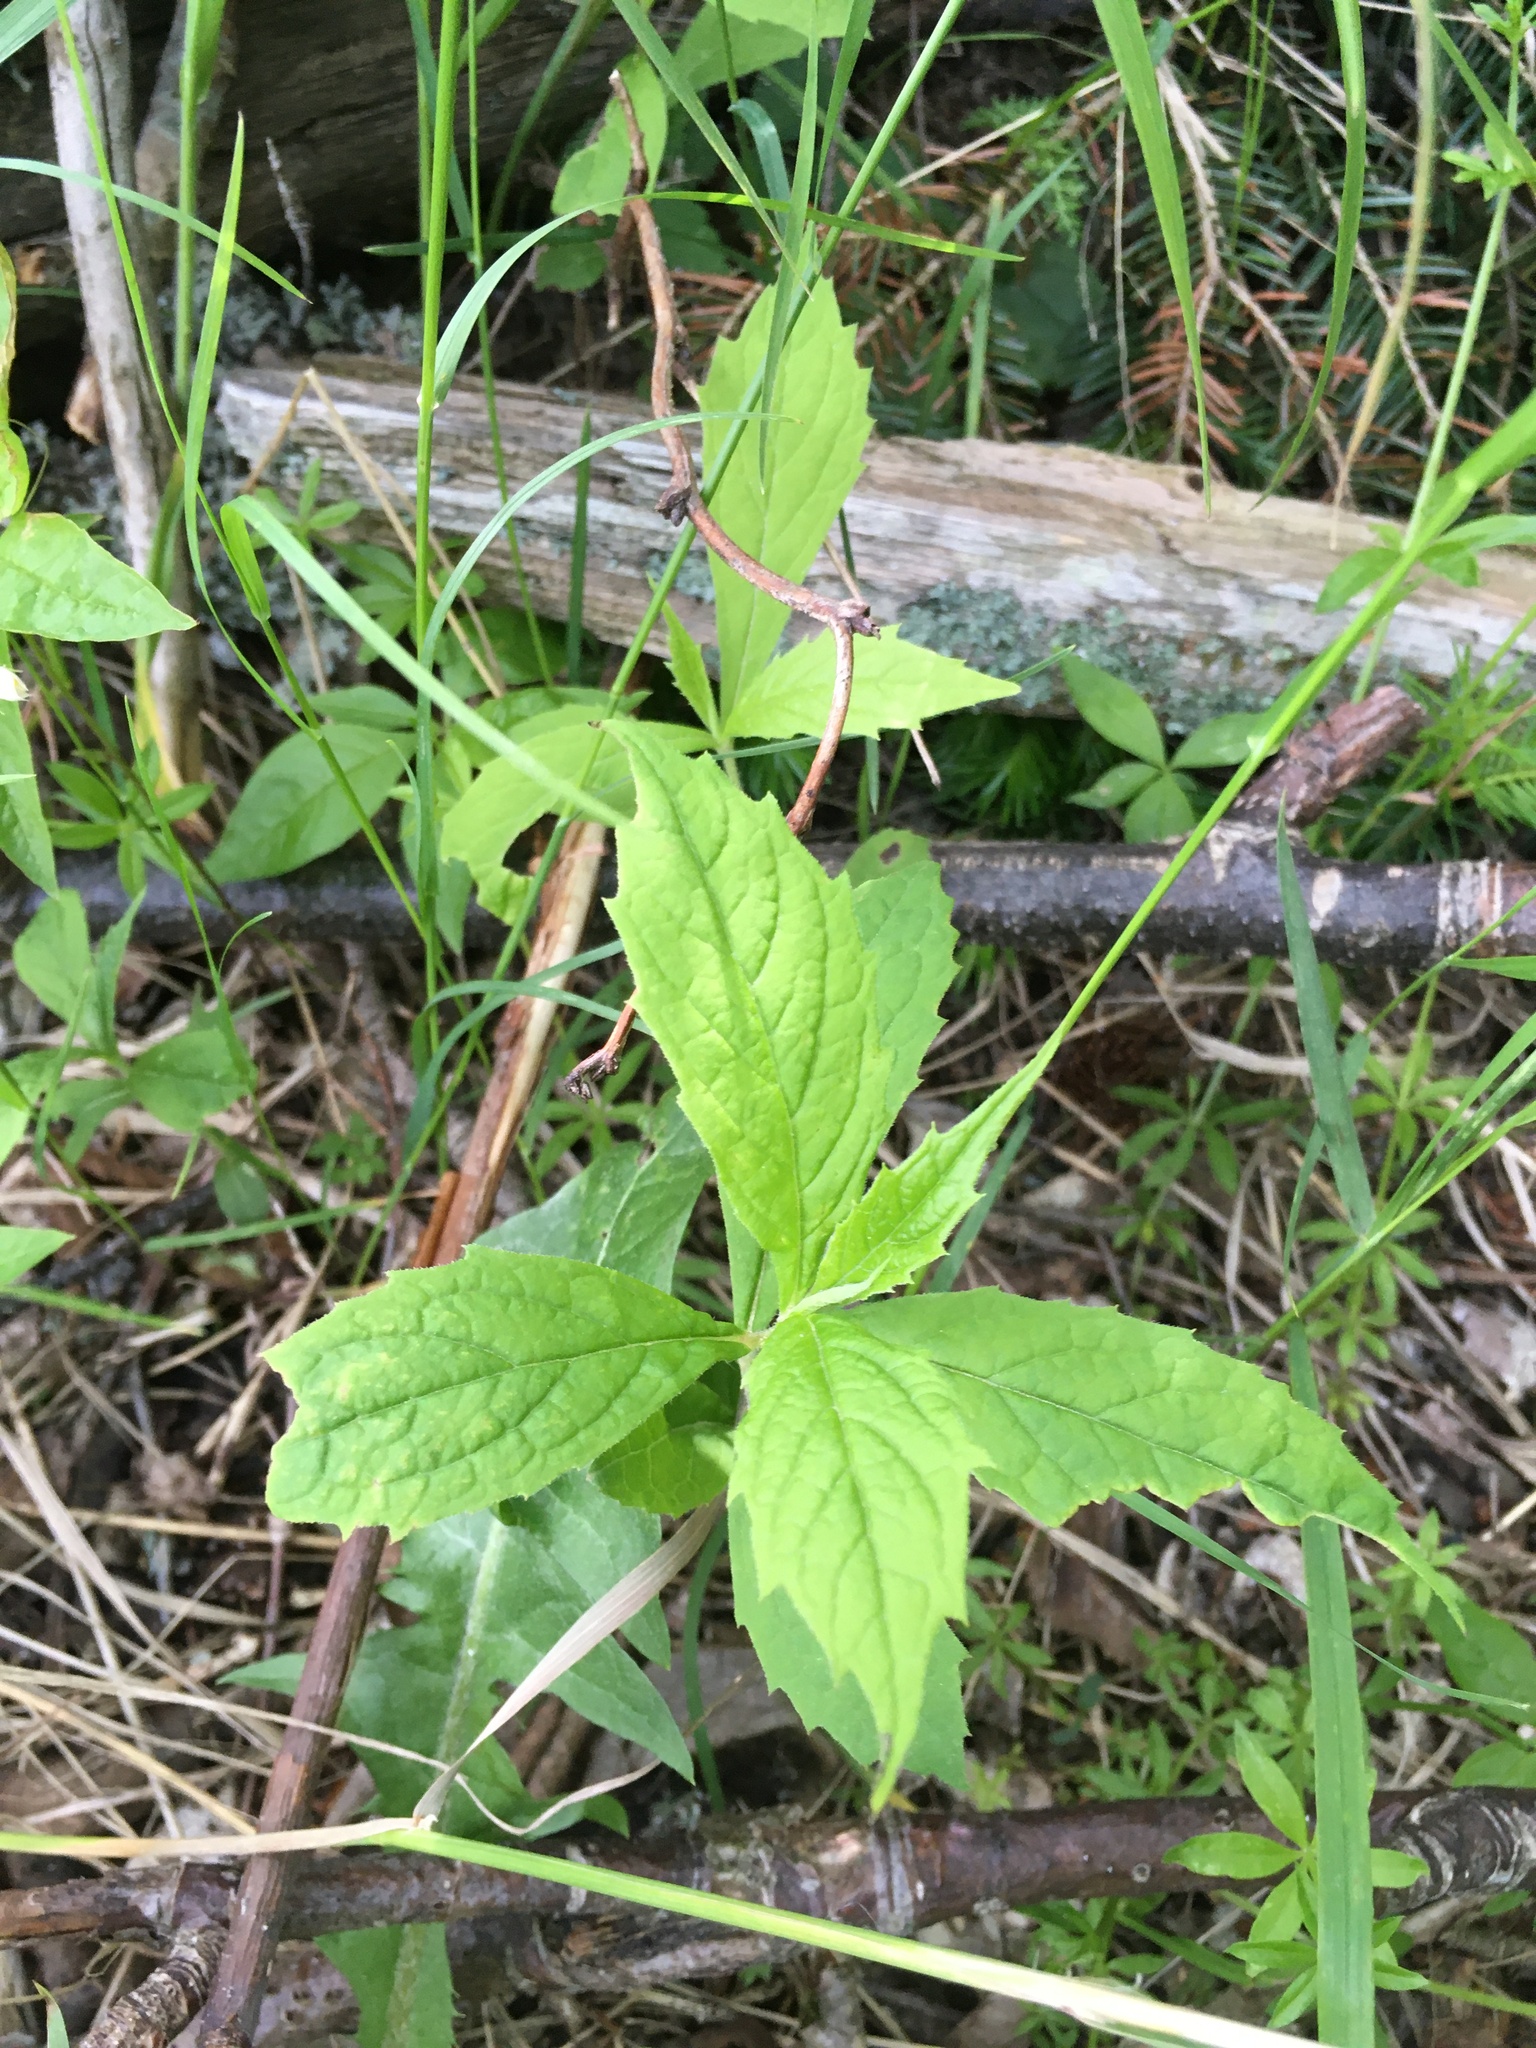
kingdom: Plantae
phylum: Tracheophyta
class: Magnoliopsida
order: Asterales
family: Asteraceae
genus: Oclemena
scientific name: Oclemena acuminata
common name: Mountain aster
